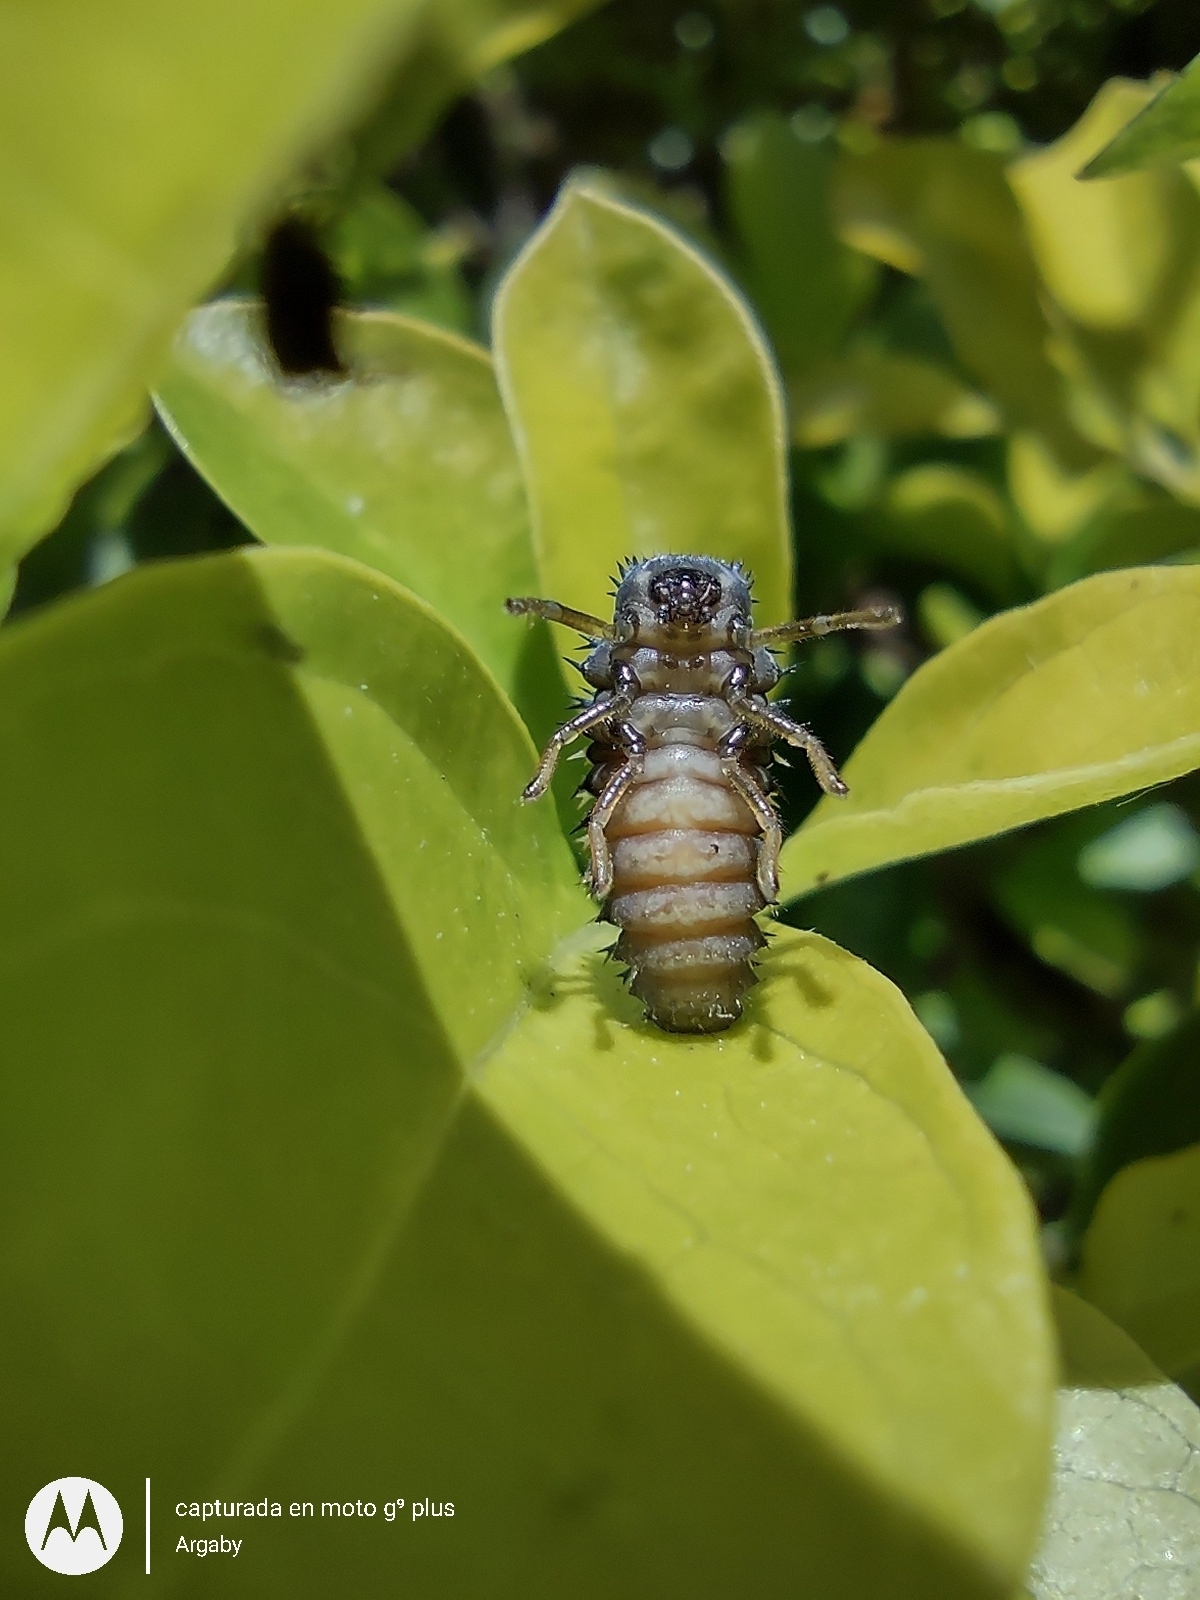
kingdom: Animalia
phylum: Arthropoda
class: Insecta
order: Coleoptera
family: Coccinellidae
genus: Harmonia
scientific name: Harmonia axyridis
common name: Harlequin ladybird
